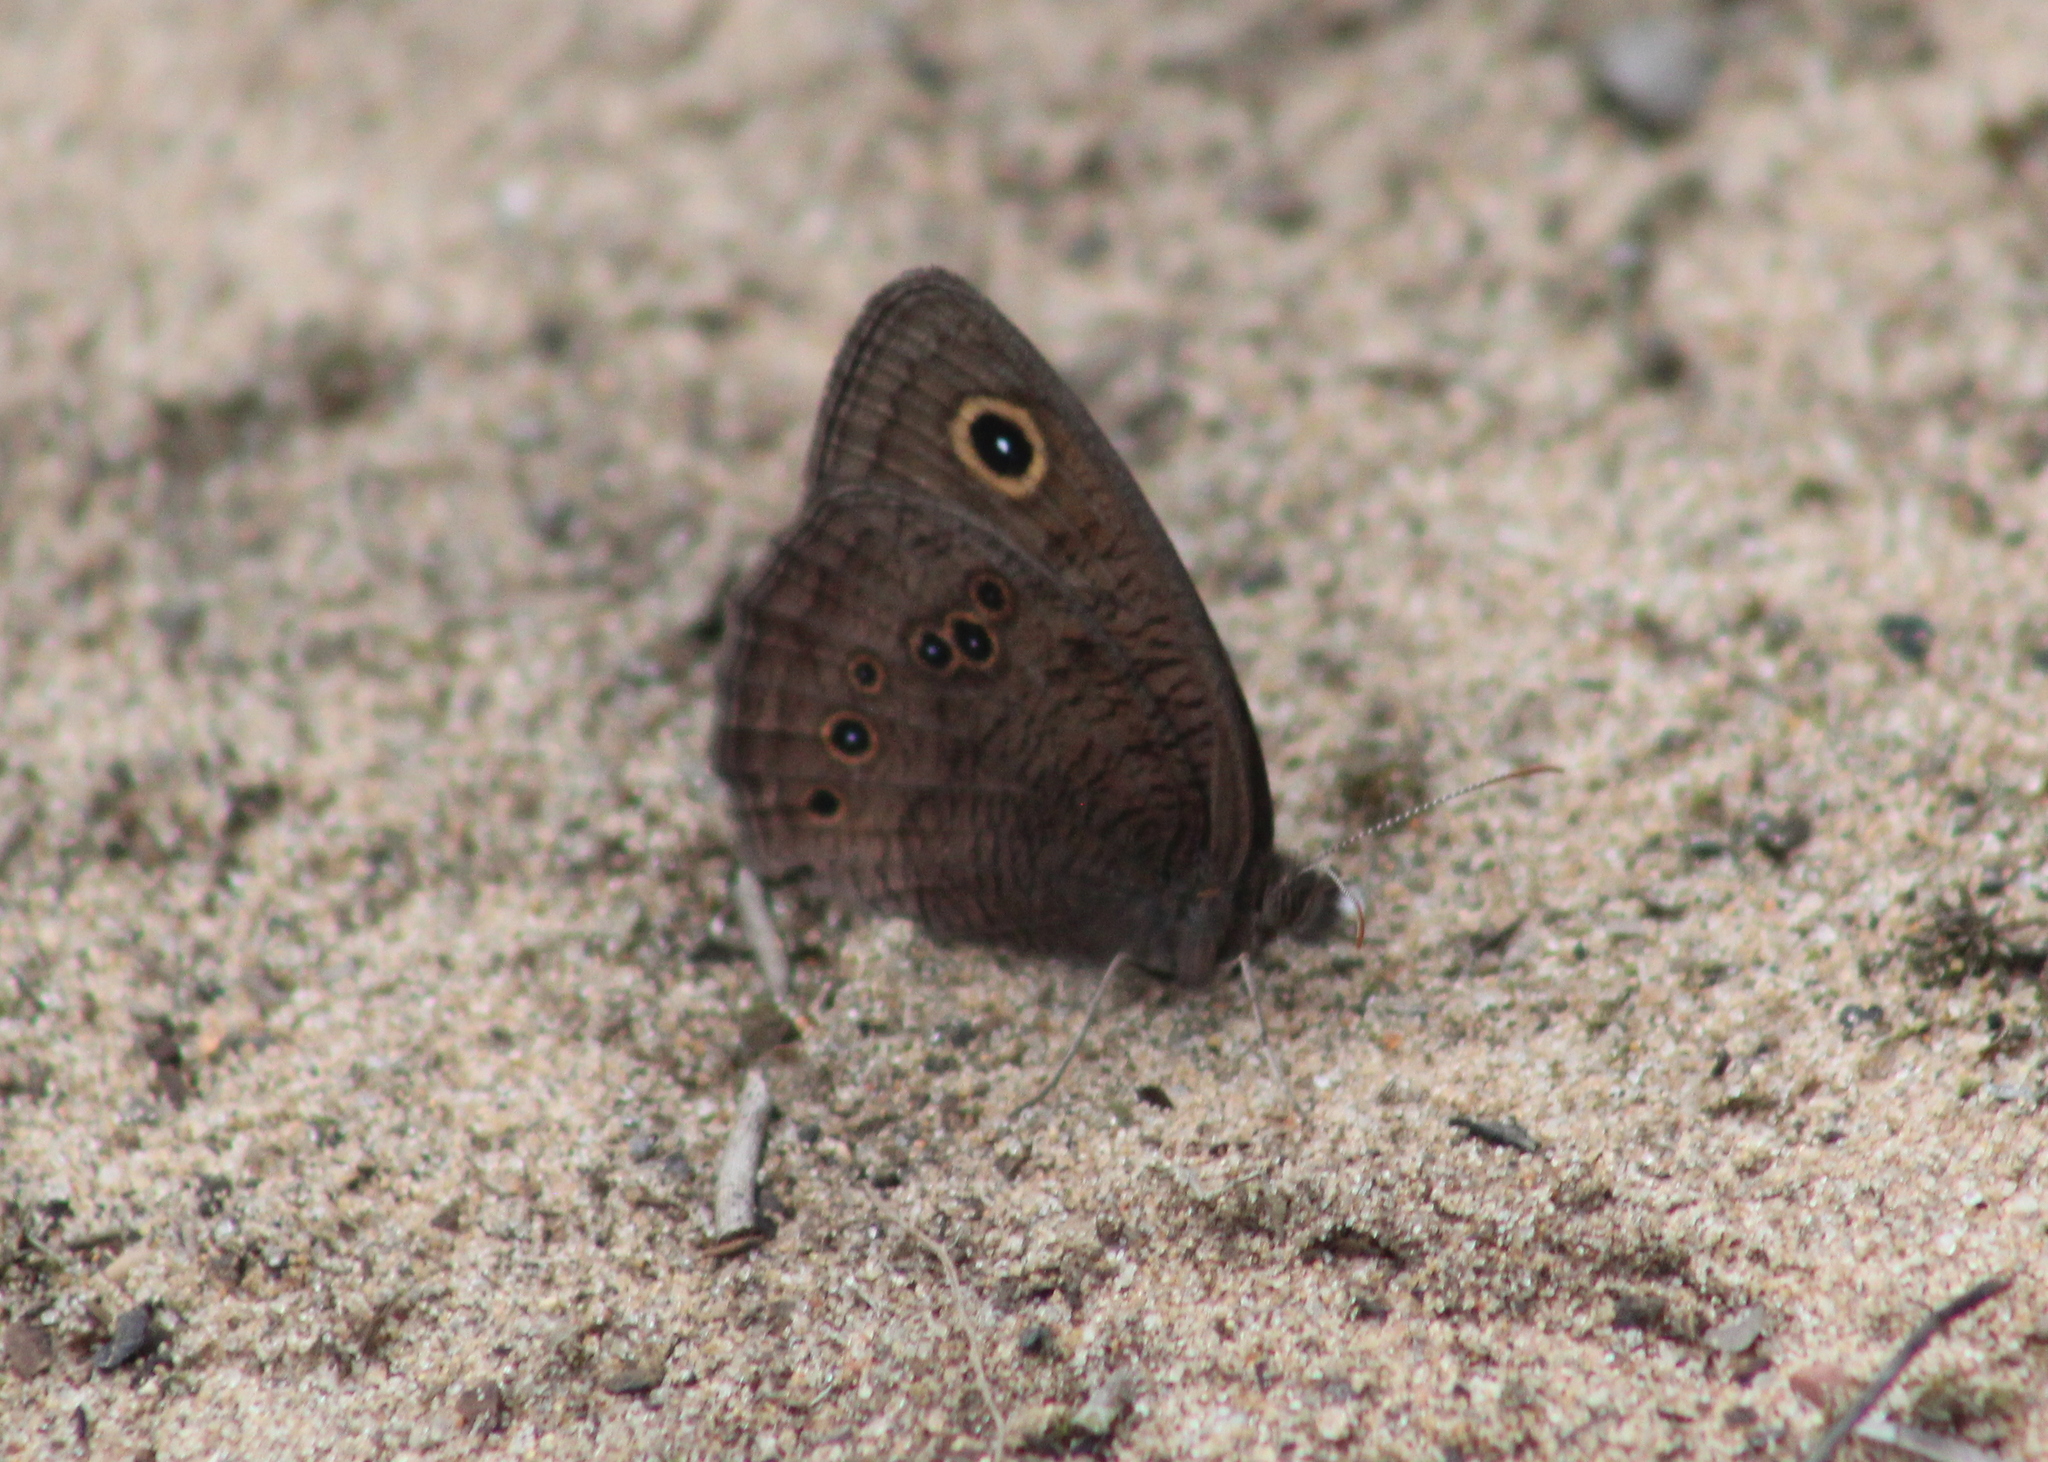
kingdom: Animalia
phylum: Arthropoda
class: Insecta
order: Lepidoptera
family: Nymphalidae
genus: Cercyonis
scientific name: Cercyonis pegala
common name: Common wood-nymph
